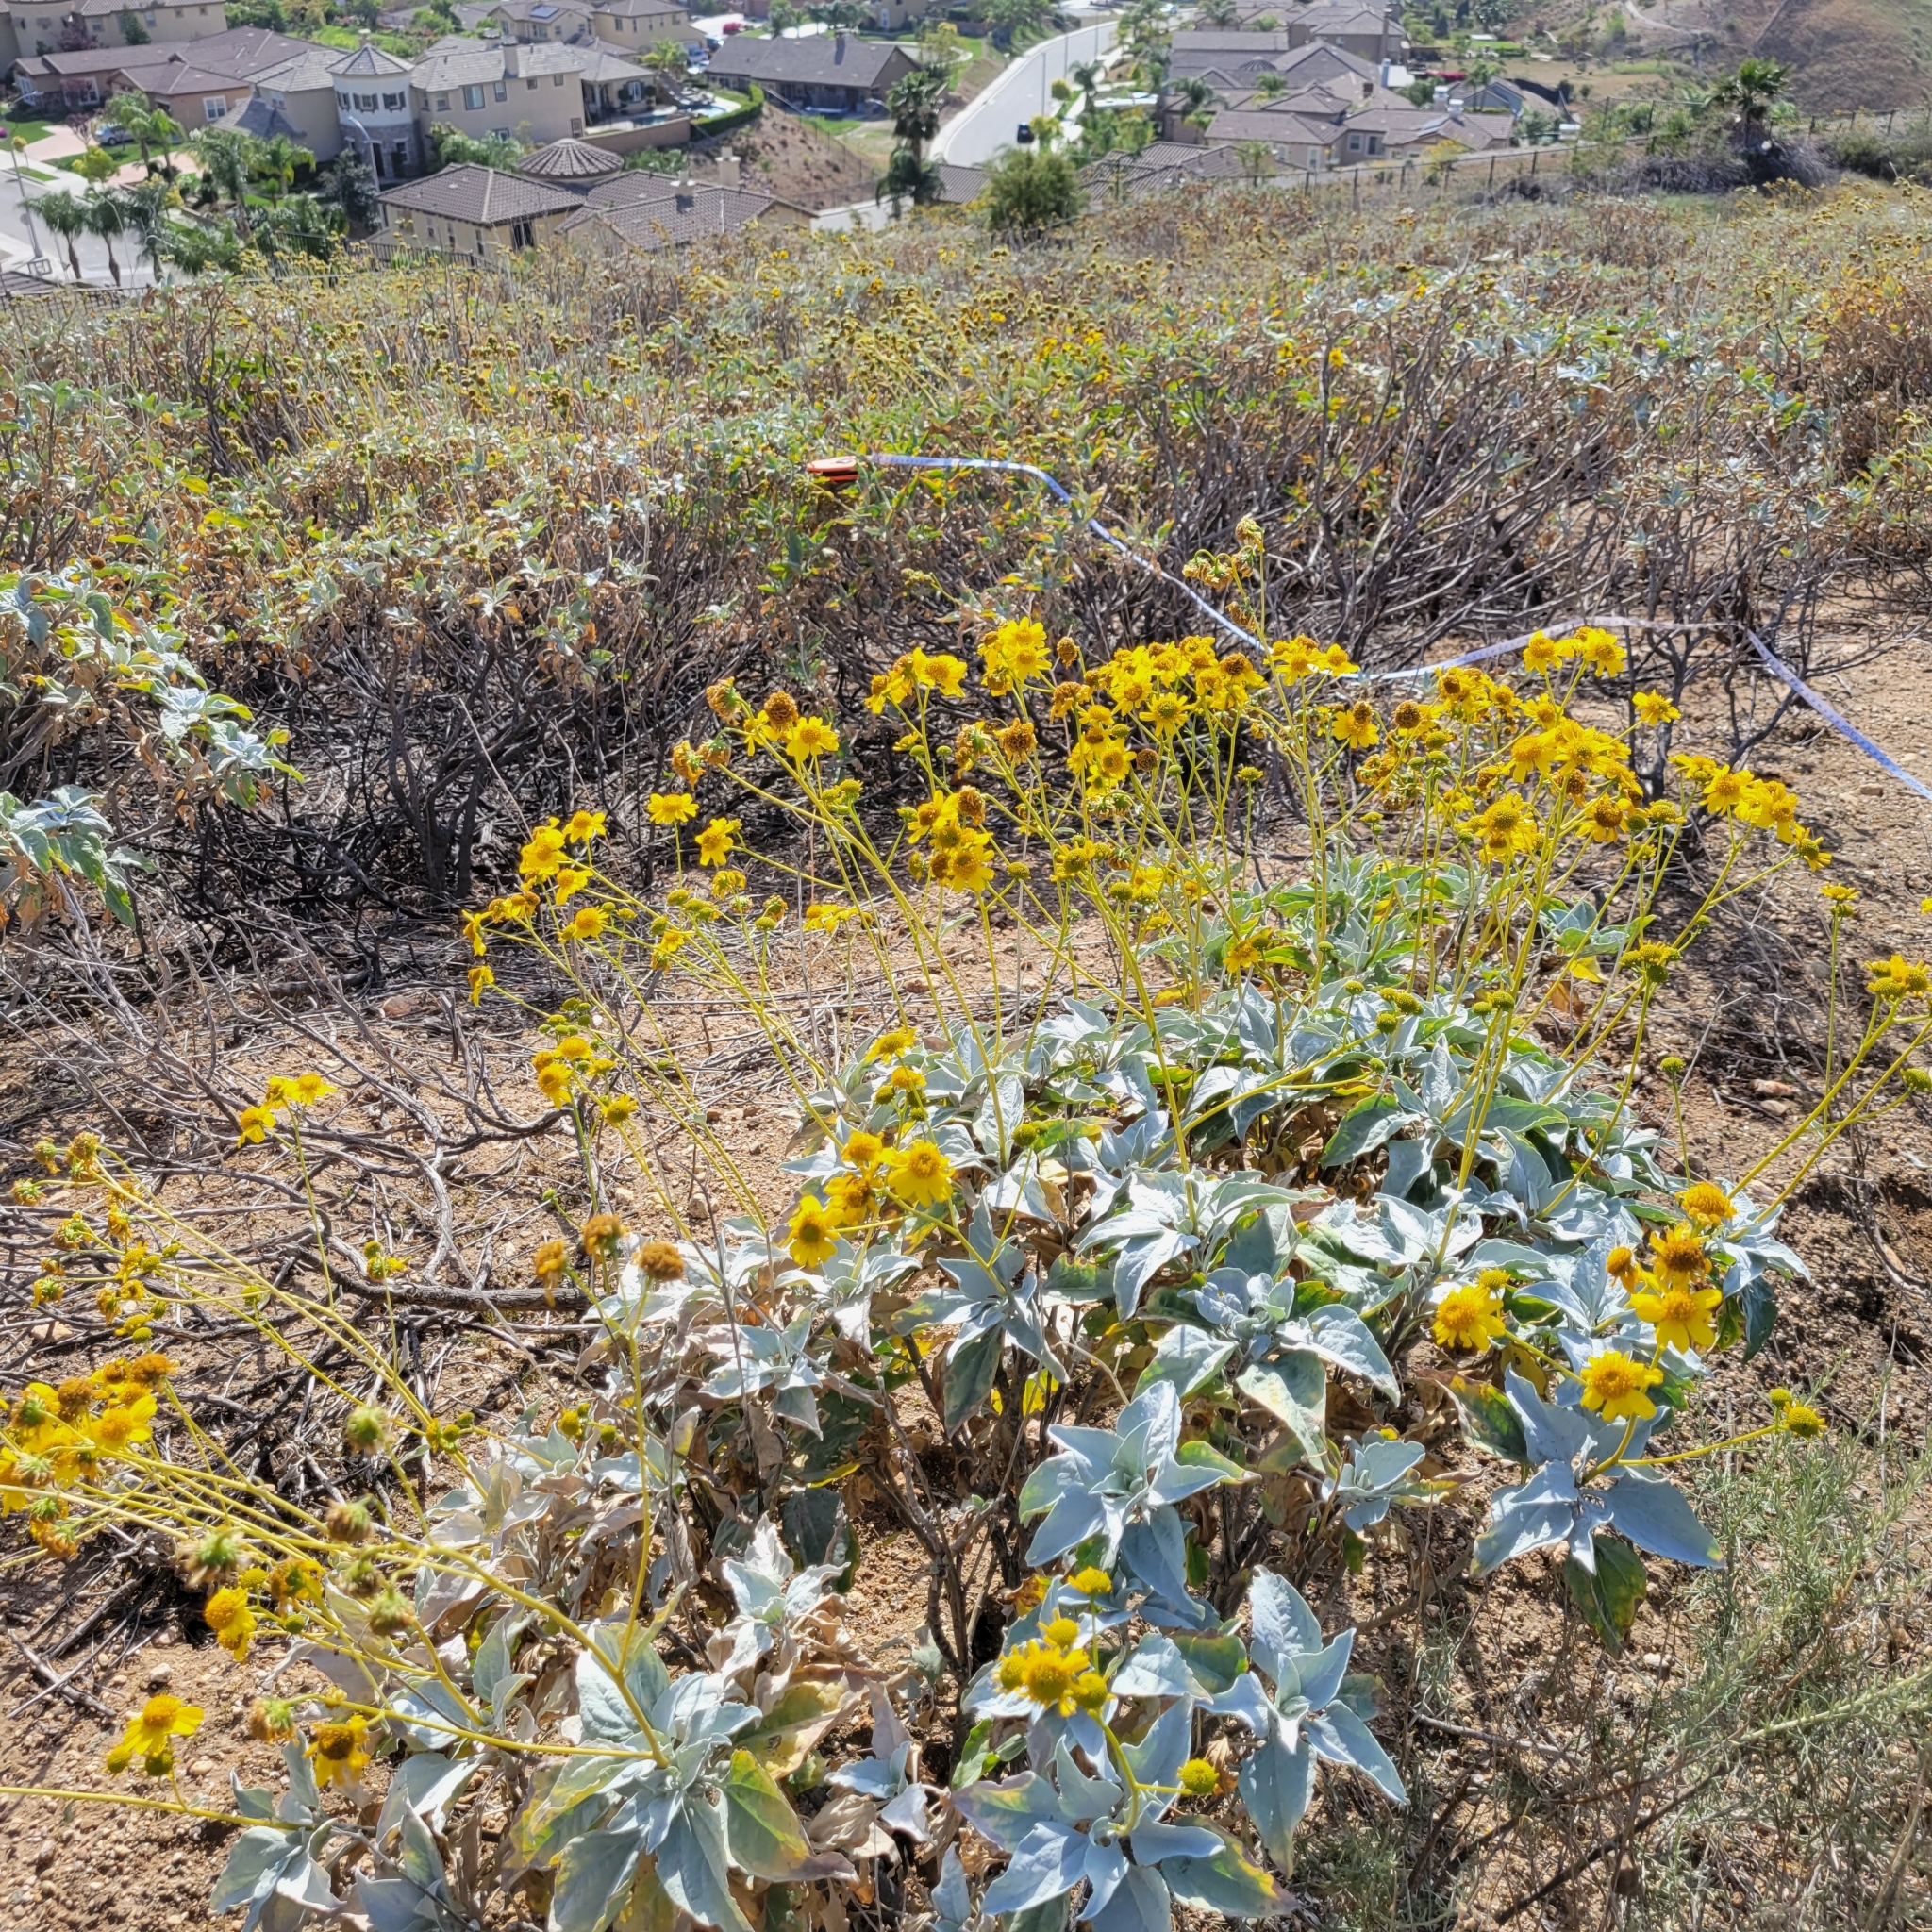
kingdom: Plantae
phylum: Tracheophyta
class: Magnoliopsida
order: Asterales
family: Asteraceae
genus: Encelia
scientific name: Encelia farinosa
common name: Brittlebush
